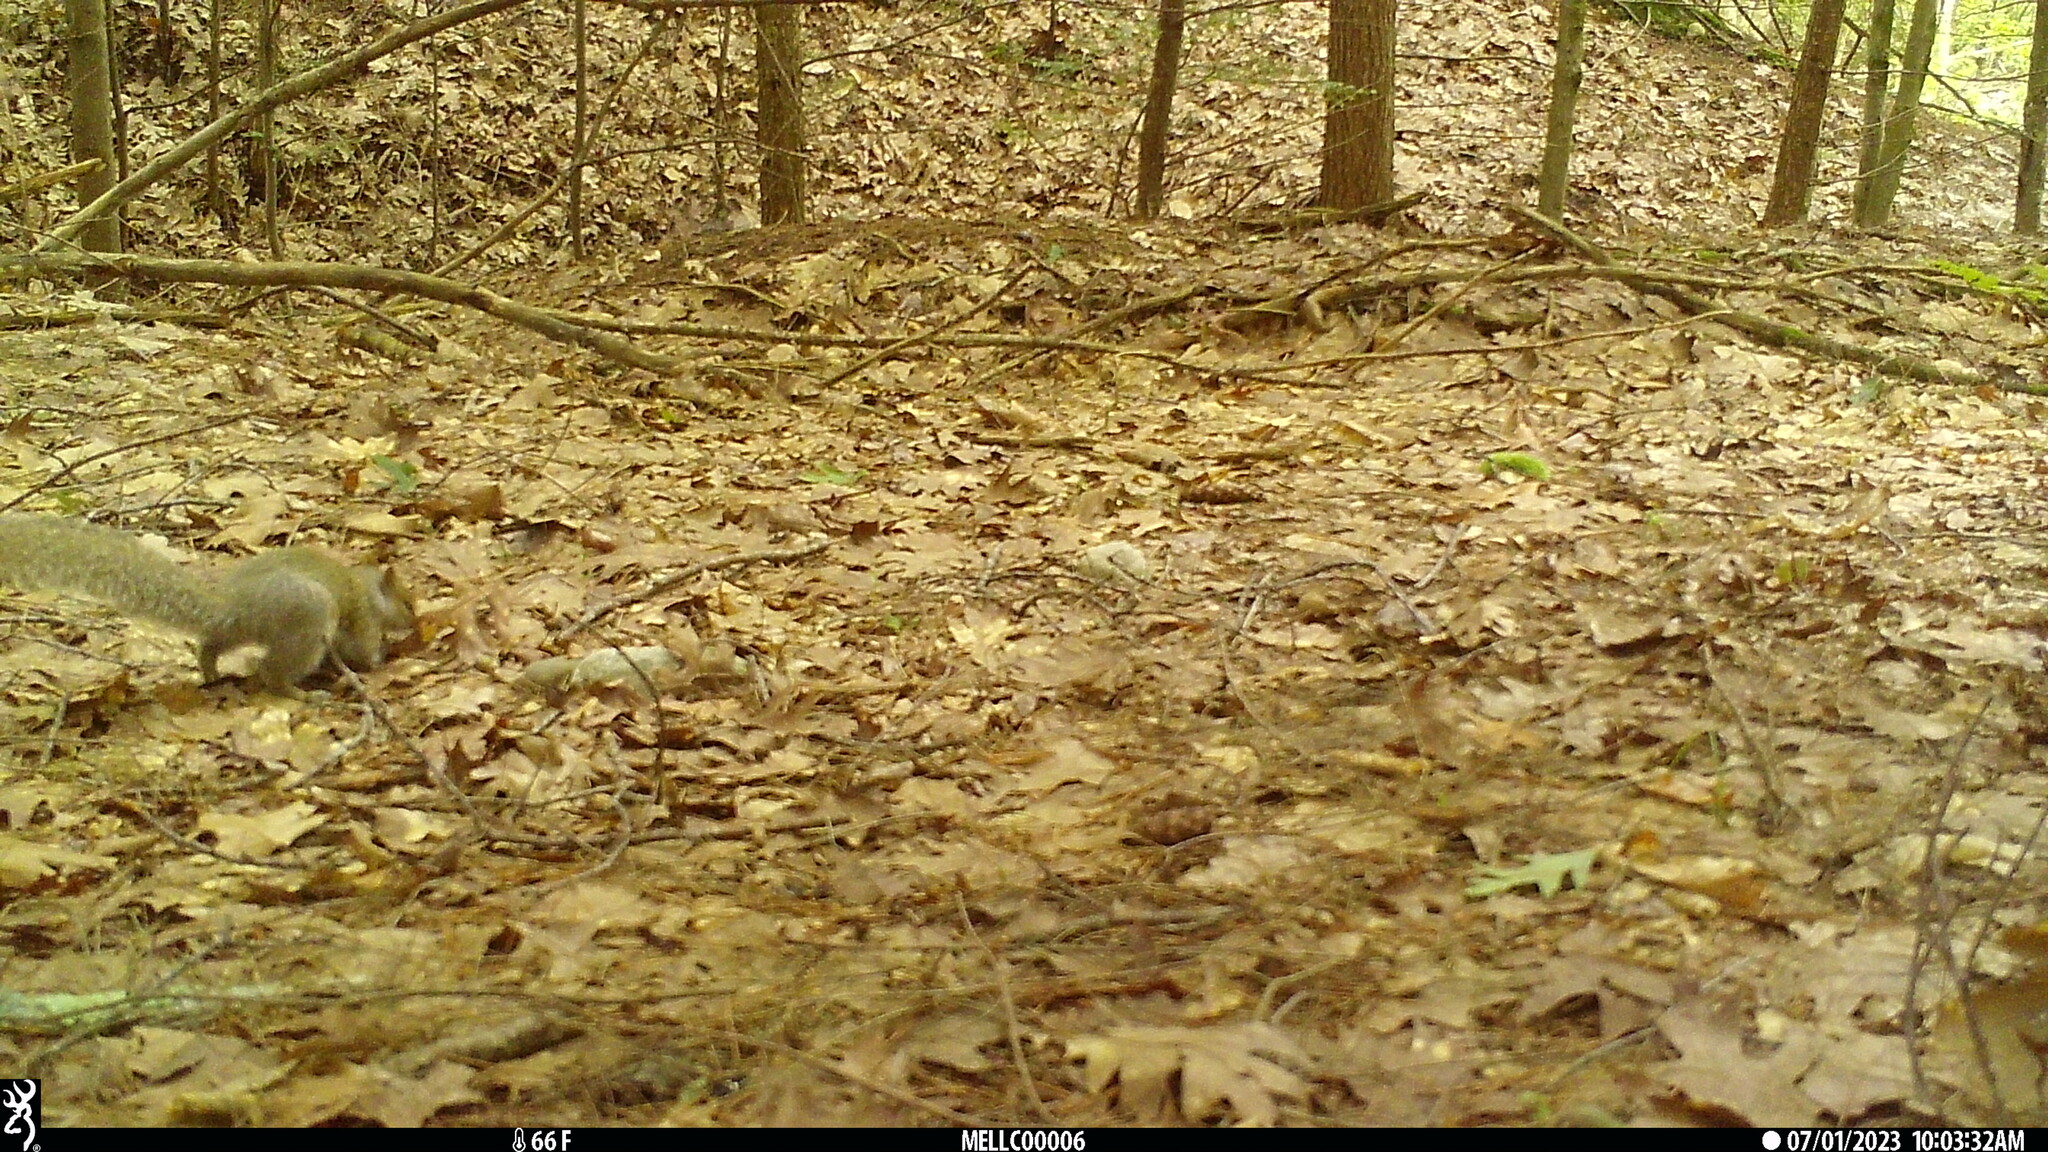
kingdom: Animalia
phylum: Chordata
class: Mammalia
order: Rodentia
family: Sciuridae
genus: Sciurus
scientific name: Sciurus carolinensis
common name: Eastern gray squirrel
